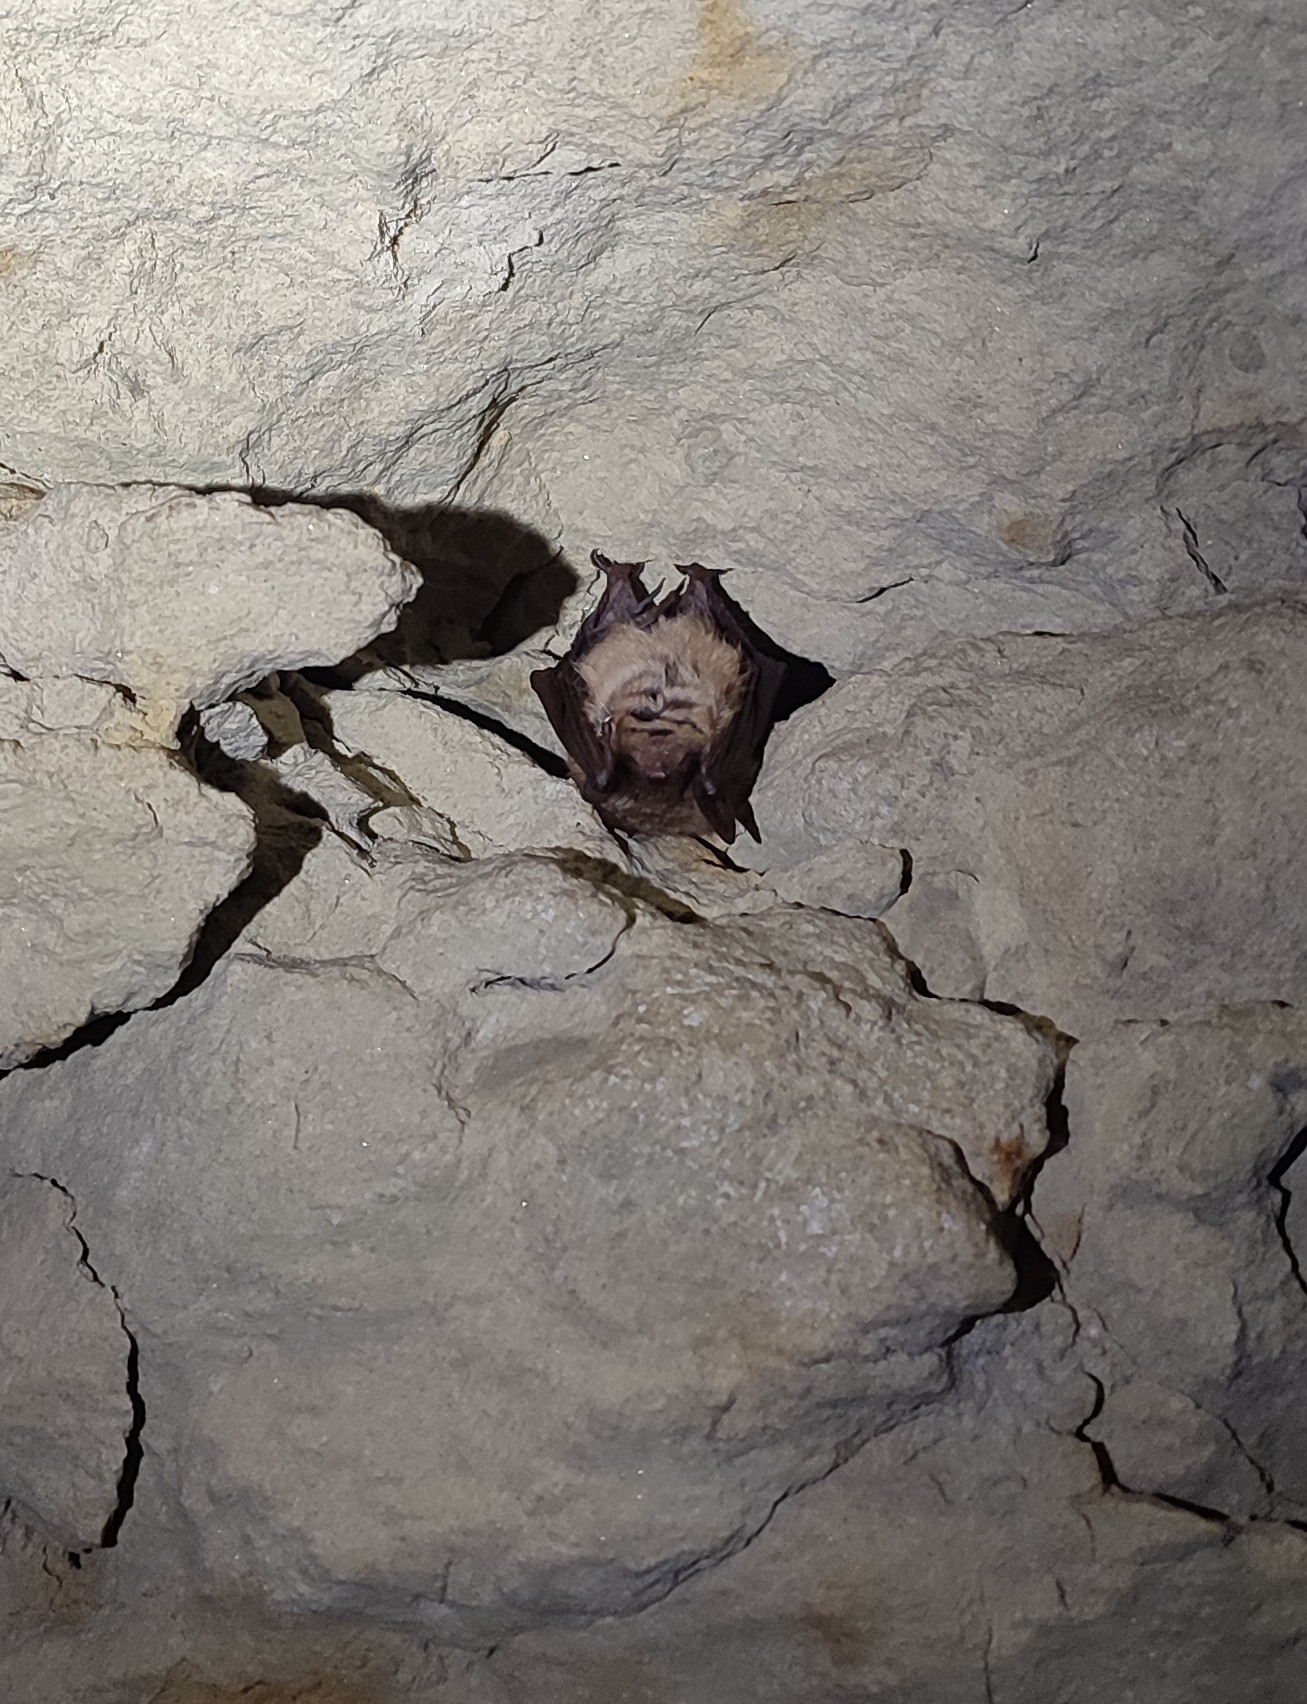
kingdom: Animalia
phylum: Chordata
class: Mammalia
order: Chiroptera
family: Vespertilionidae
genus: Myotis
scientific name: Myotis emarginatus
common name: Geoffroy's bat
